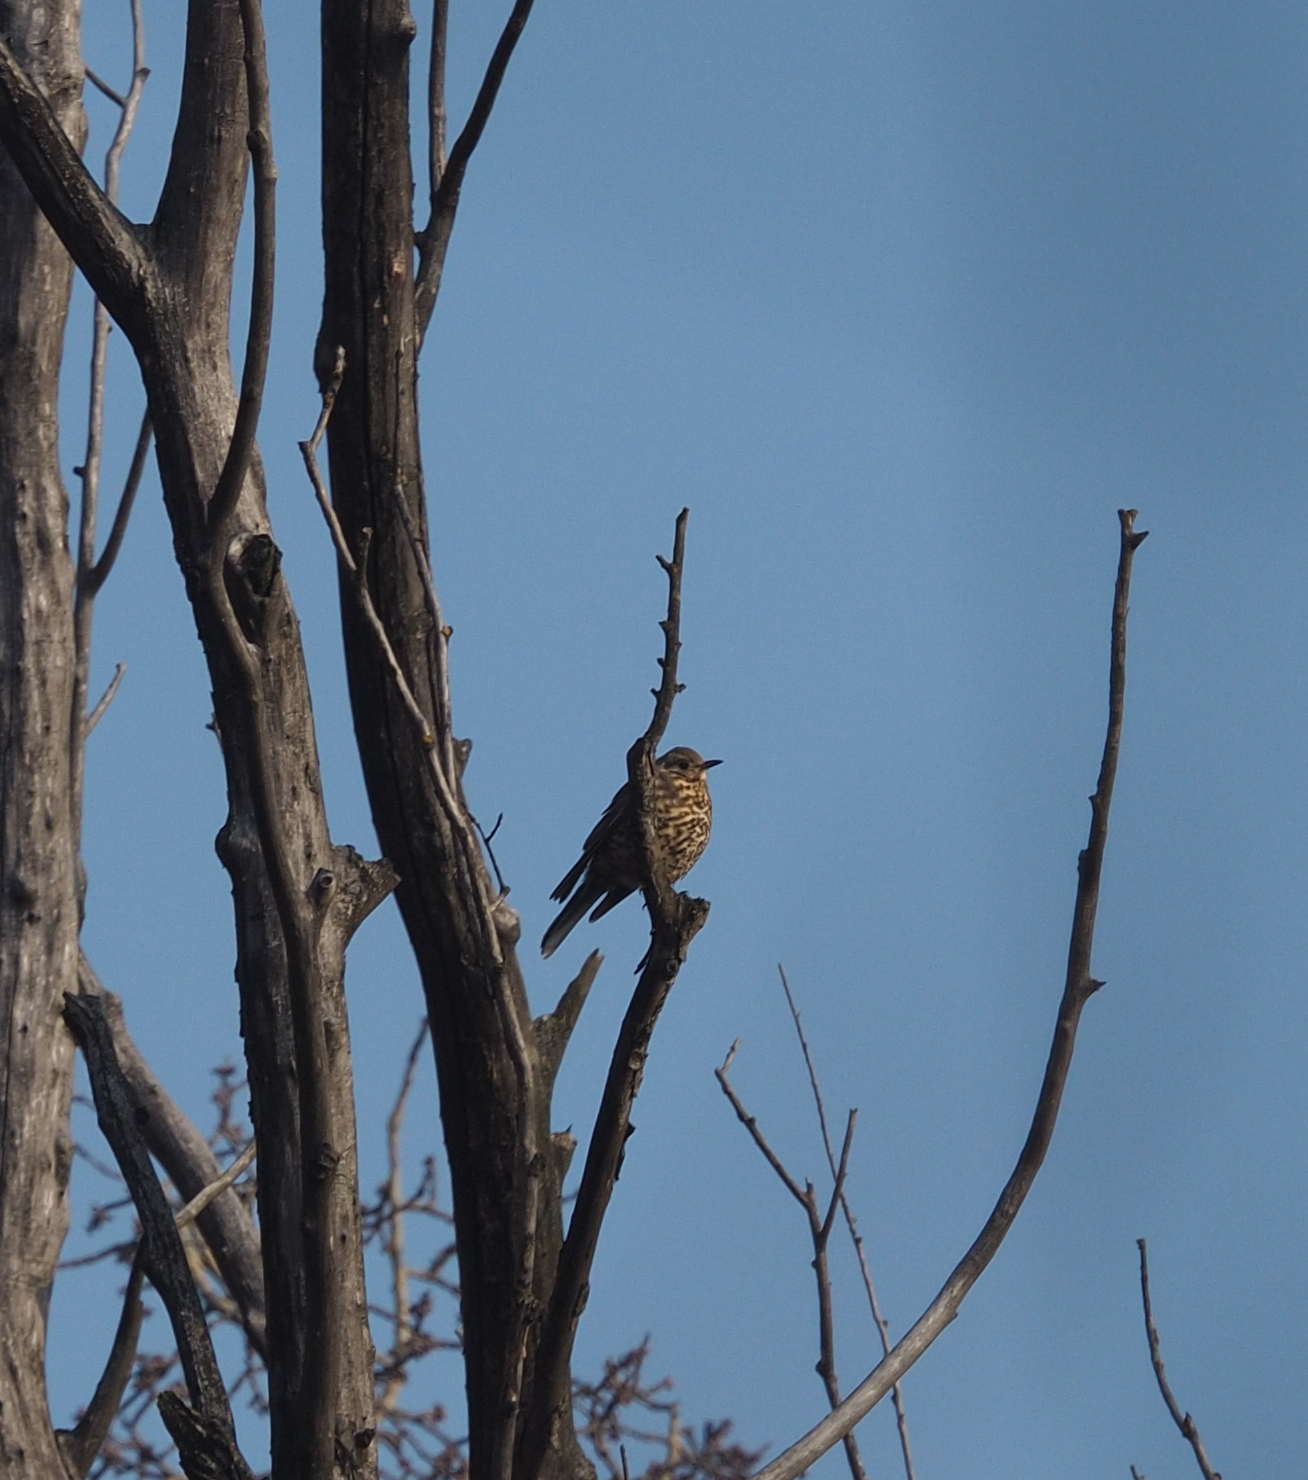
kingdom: Animalia
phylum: Chordata
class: Aves
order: Passeriformes
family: Turdidae
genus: Turdus
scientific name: Turdus viscivorus
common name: Mistle thrush
